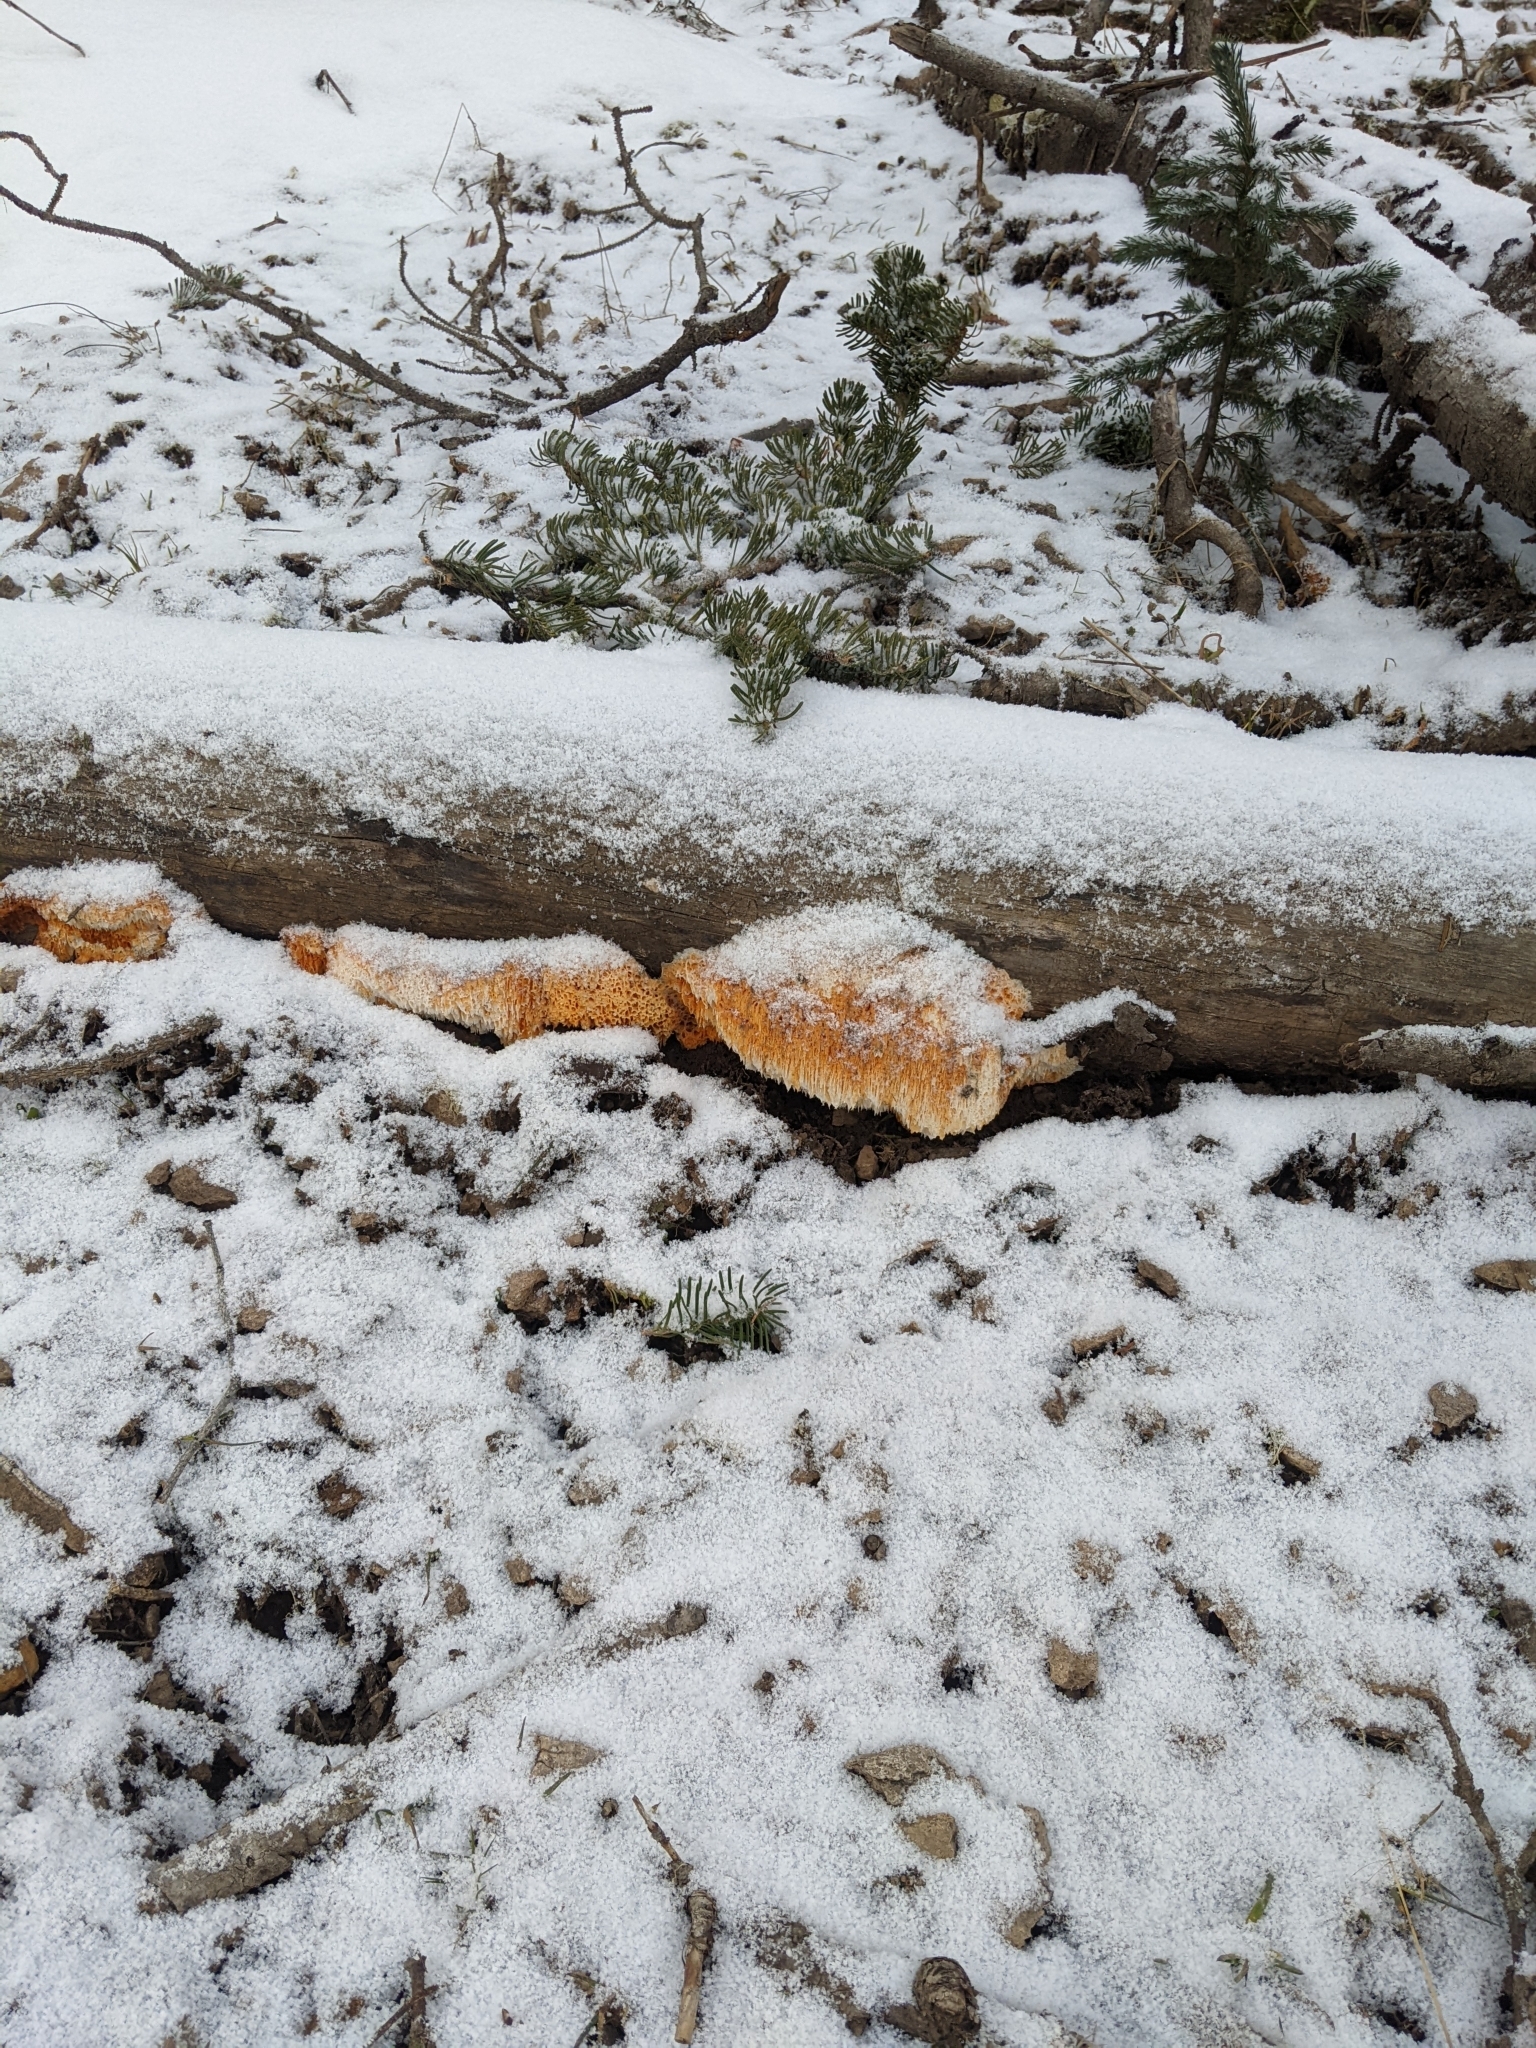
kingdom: Fungi
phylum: Basidiomycota
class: Agaricomycetes
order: Polyporales
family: Pycnoporellaceae
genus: Pycnoporellus
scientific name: Pycnoporellus alboluteus
